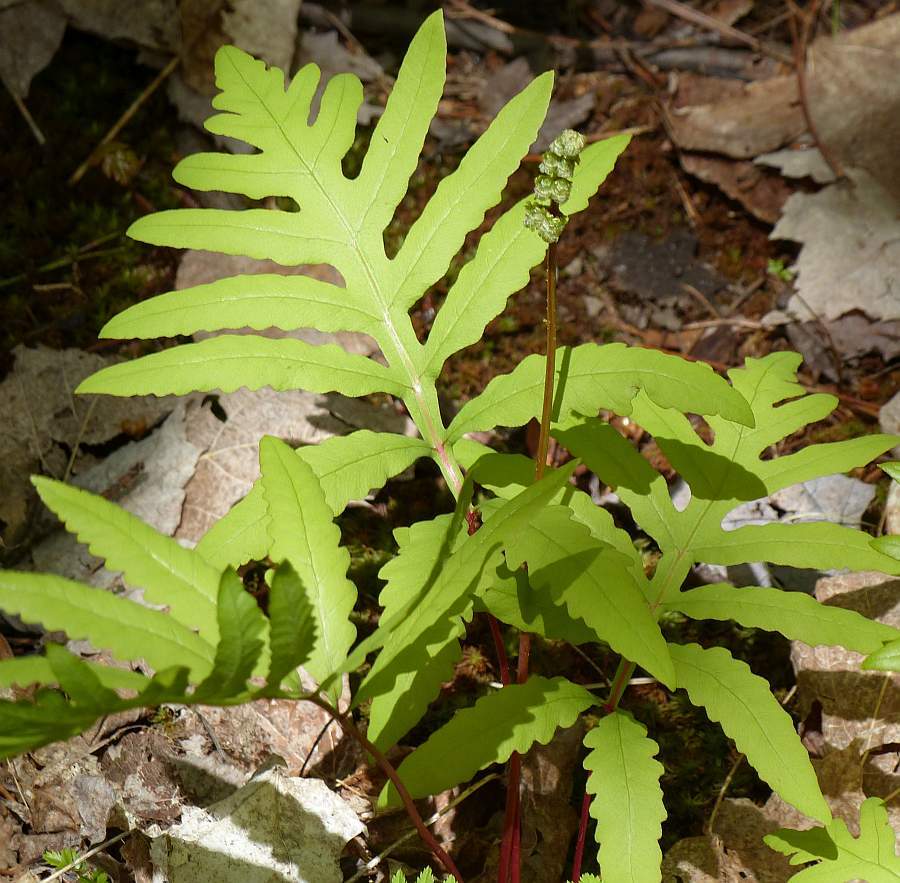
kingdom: Plantae
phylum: Tracheophyta
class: Polypodiopsida
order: Polypodiales
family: Onocleaceae
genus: Onoclea
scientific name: Onoclea sensibilis
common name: Sensitive fern
